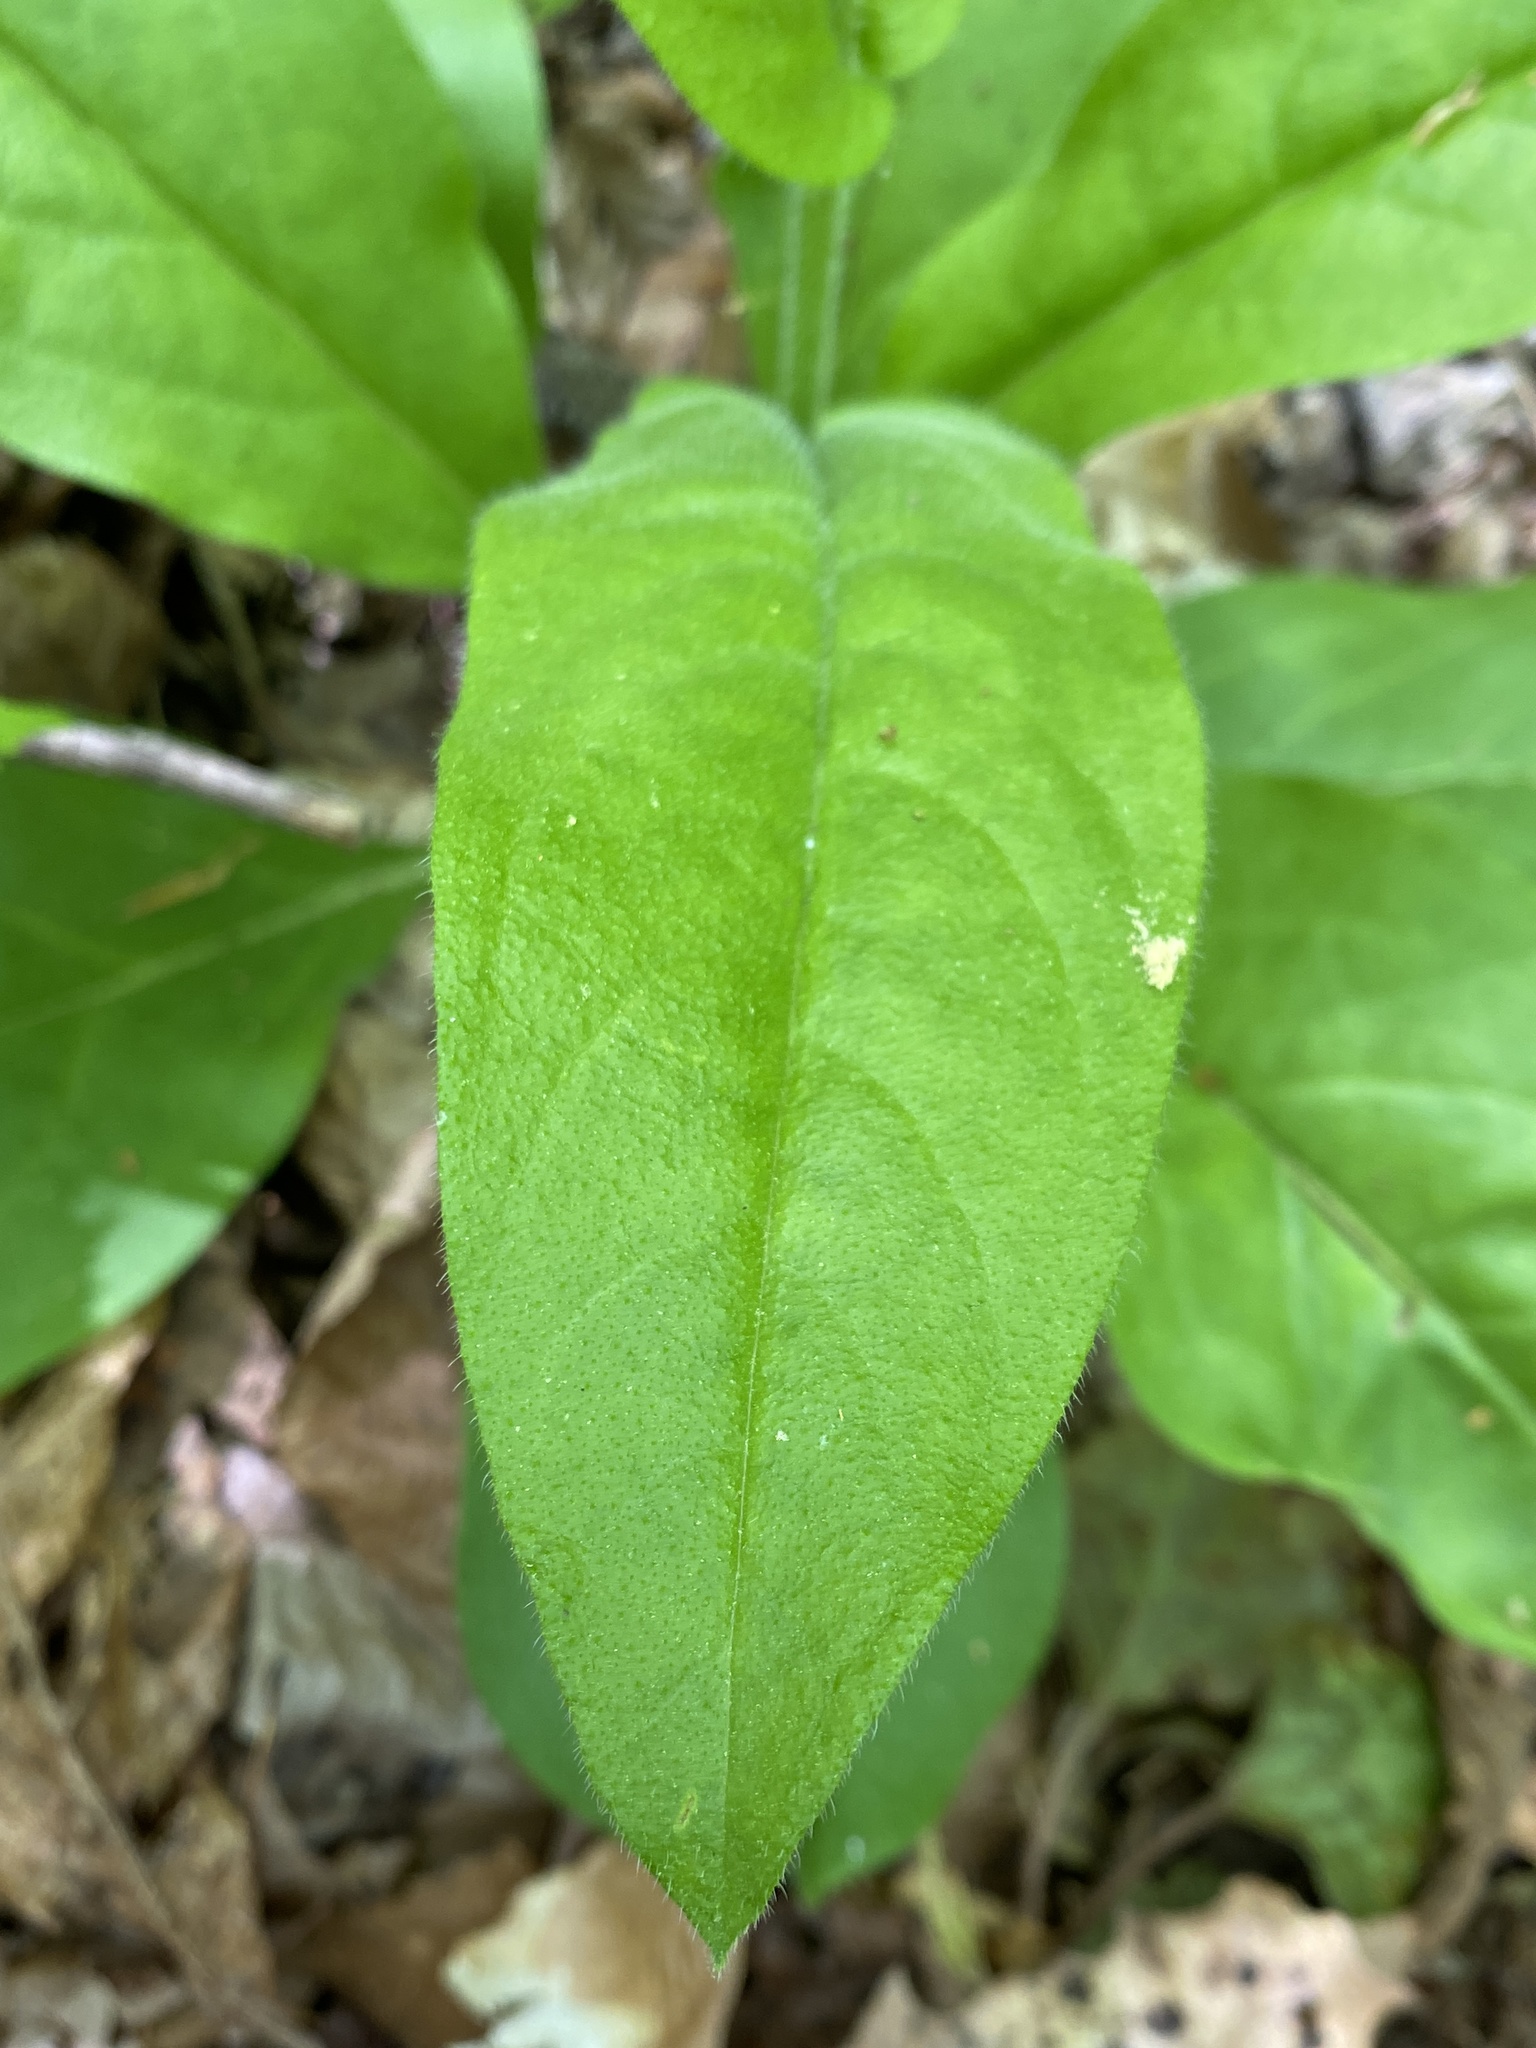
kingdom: Plantae
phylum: Tracheophyta
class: Magnoliopsida
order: Boraginales
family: Boraginaceae
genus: Andersonglossum
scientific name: Andersonglossum virginianum
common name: Wild comfrey
